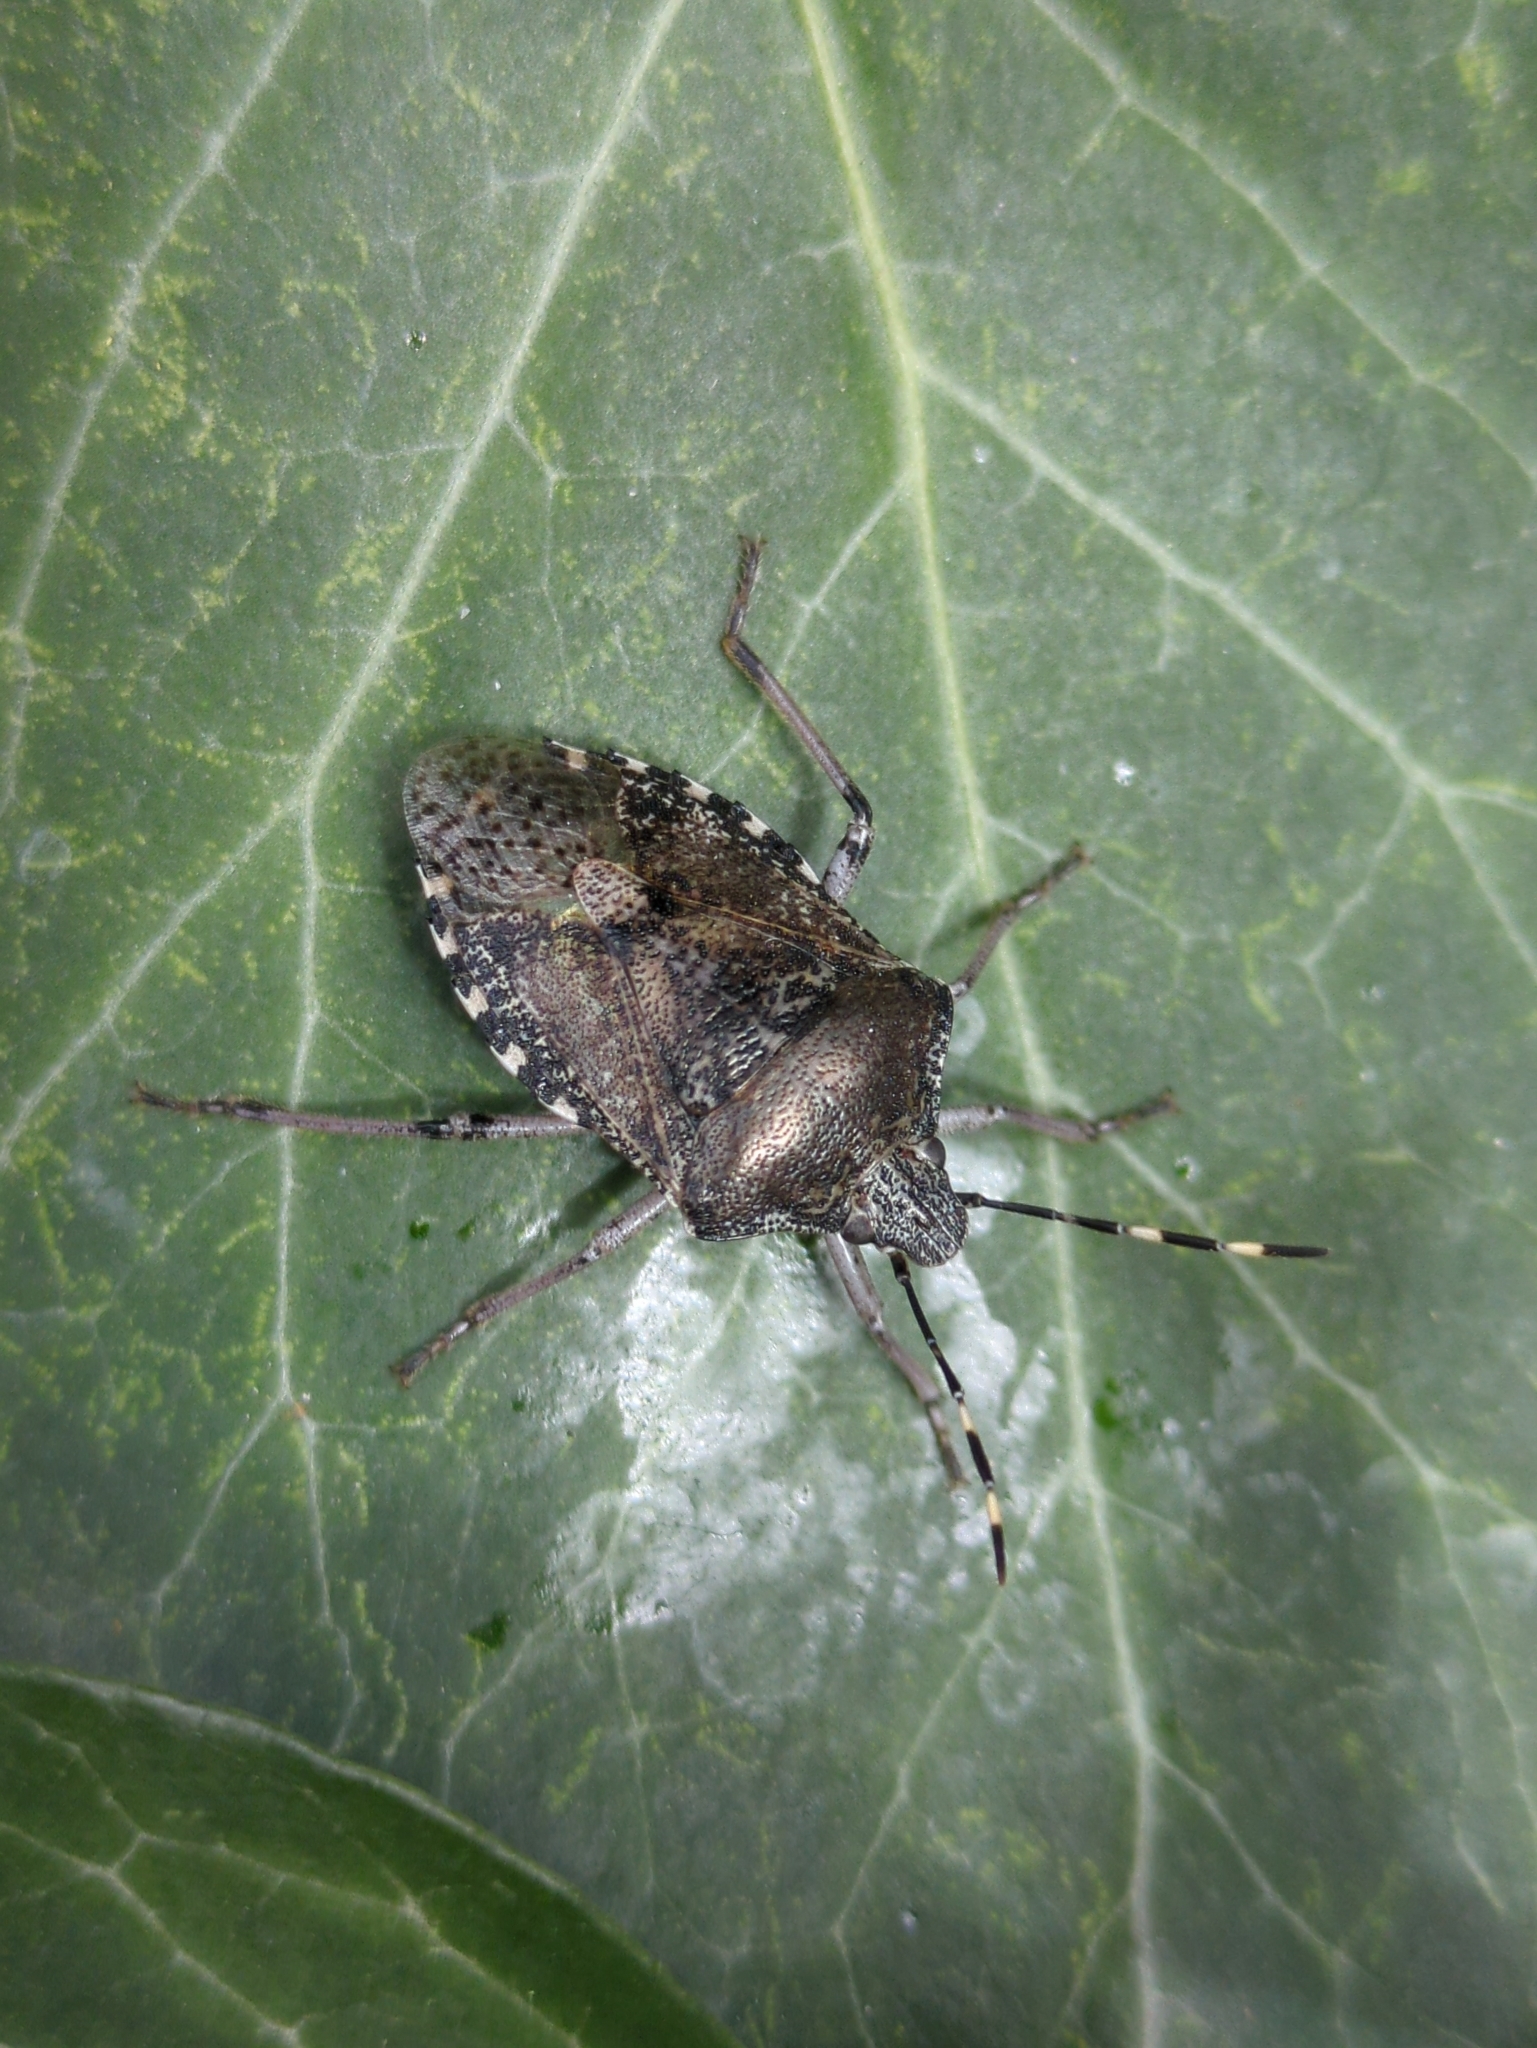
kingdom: Animalia
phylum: Arthropoda
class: Insecta
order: Hemiptera
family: Pentatomidae
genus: Rhaphigaster
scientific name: Rhaphigaster nebulosa
